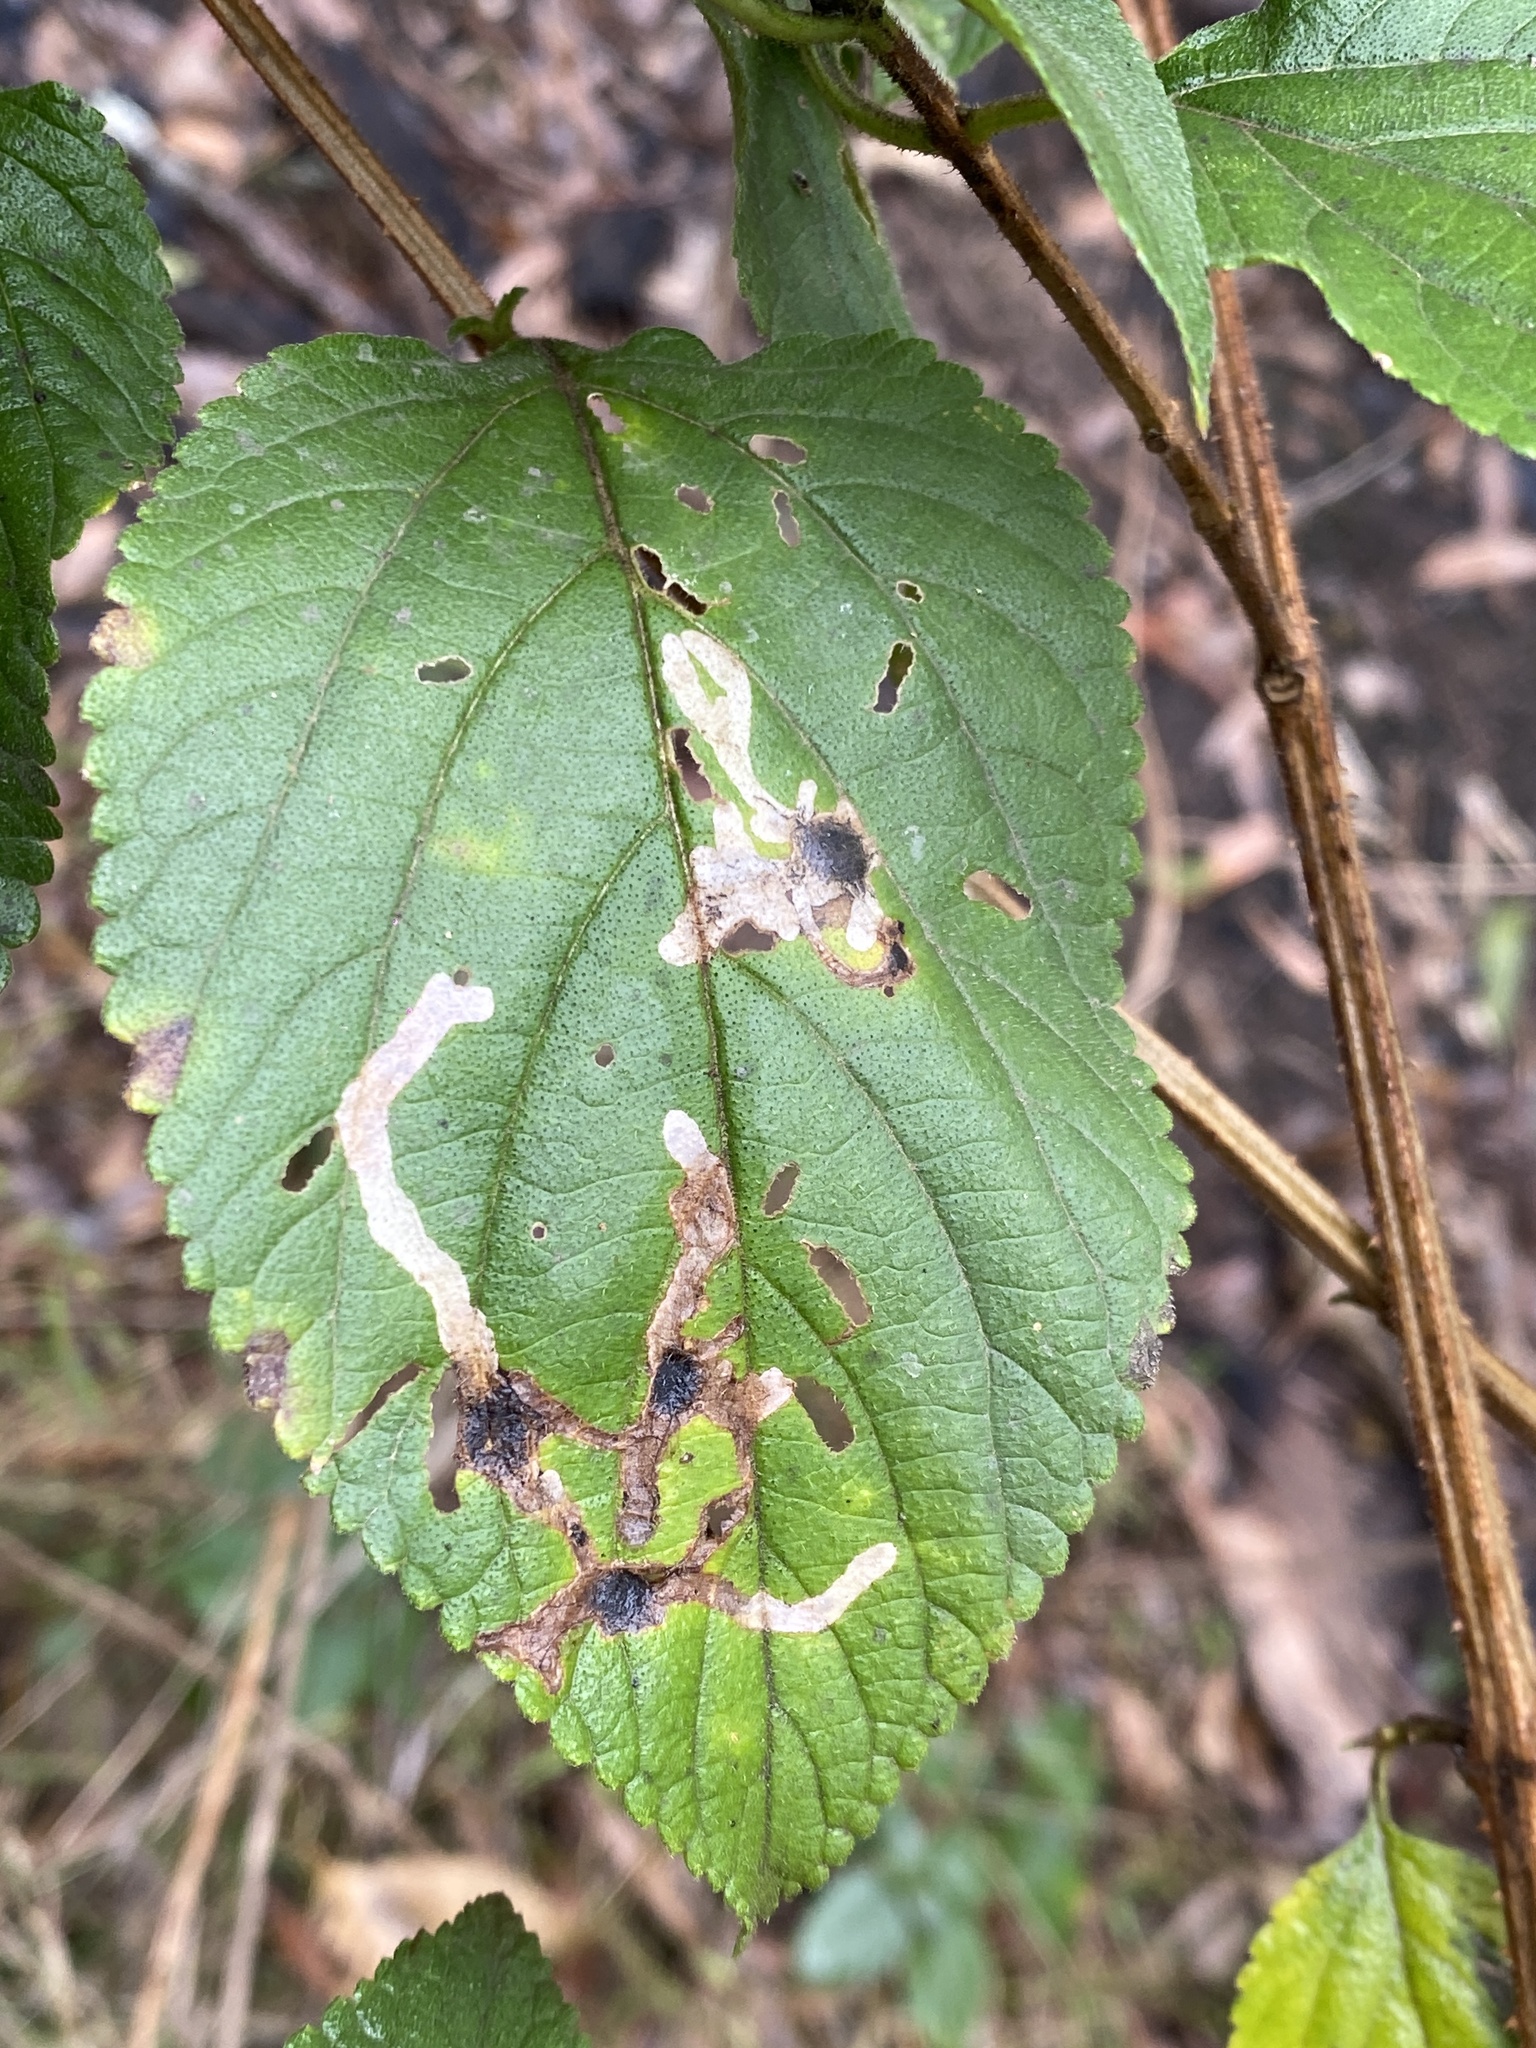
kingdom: Animalia
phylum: Arthropoda
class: Insecta
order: Coleoptera
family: Chrysomelidae
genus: Uroplata
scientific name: Uroplata girardi
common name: Lantana leafminer
